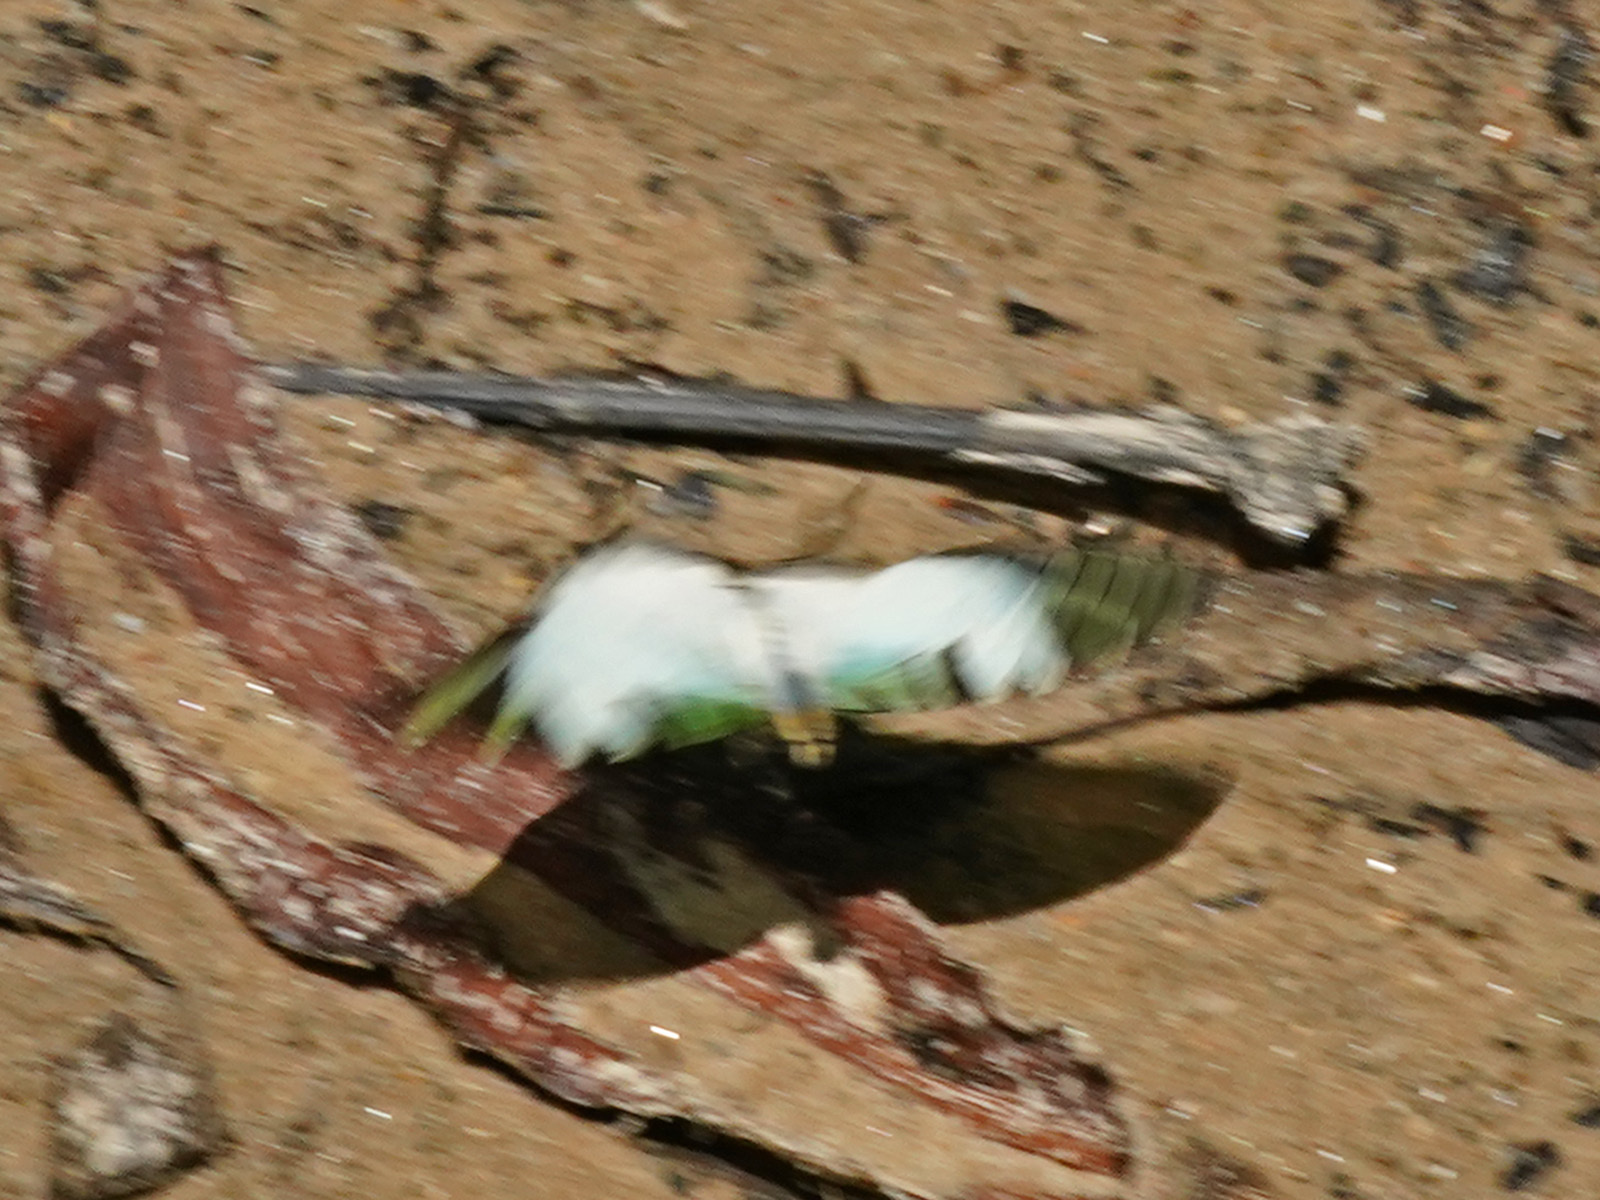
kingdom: Animalia
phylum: Arthropoda
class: Insecta
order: Lepidoptera
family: Papilionidae
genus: Graphium
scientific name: Graphium antiphates
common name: Fivebar swordtail
